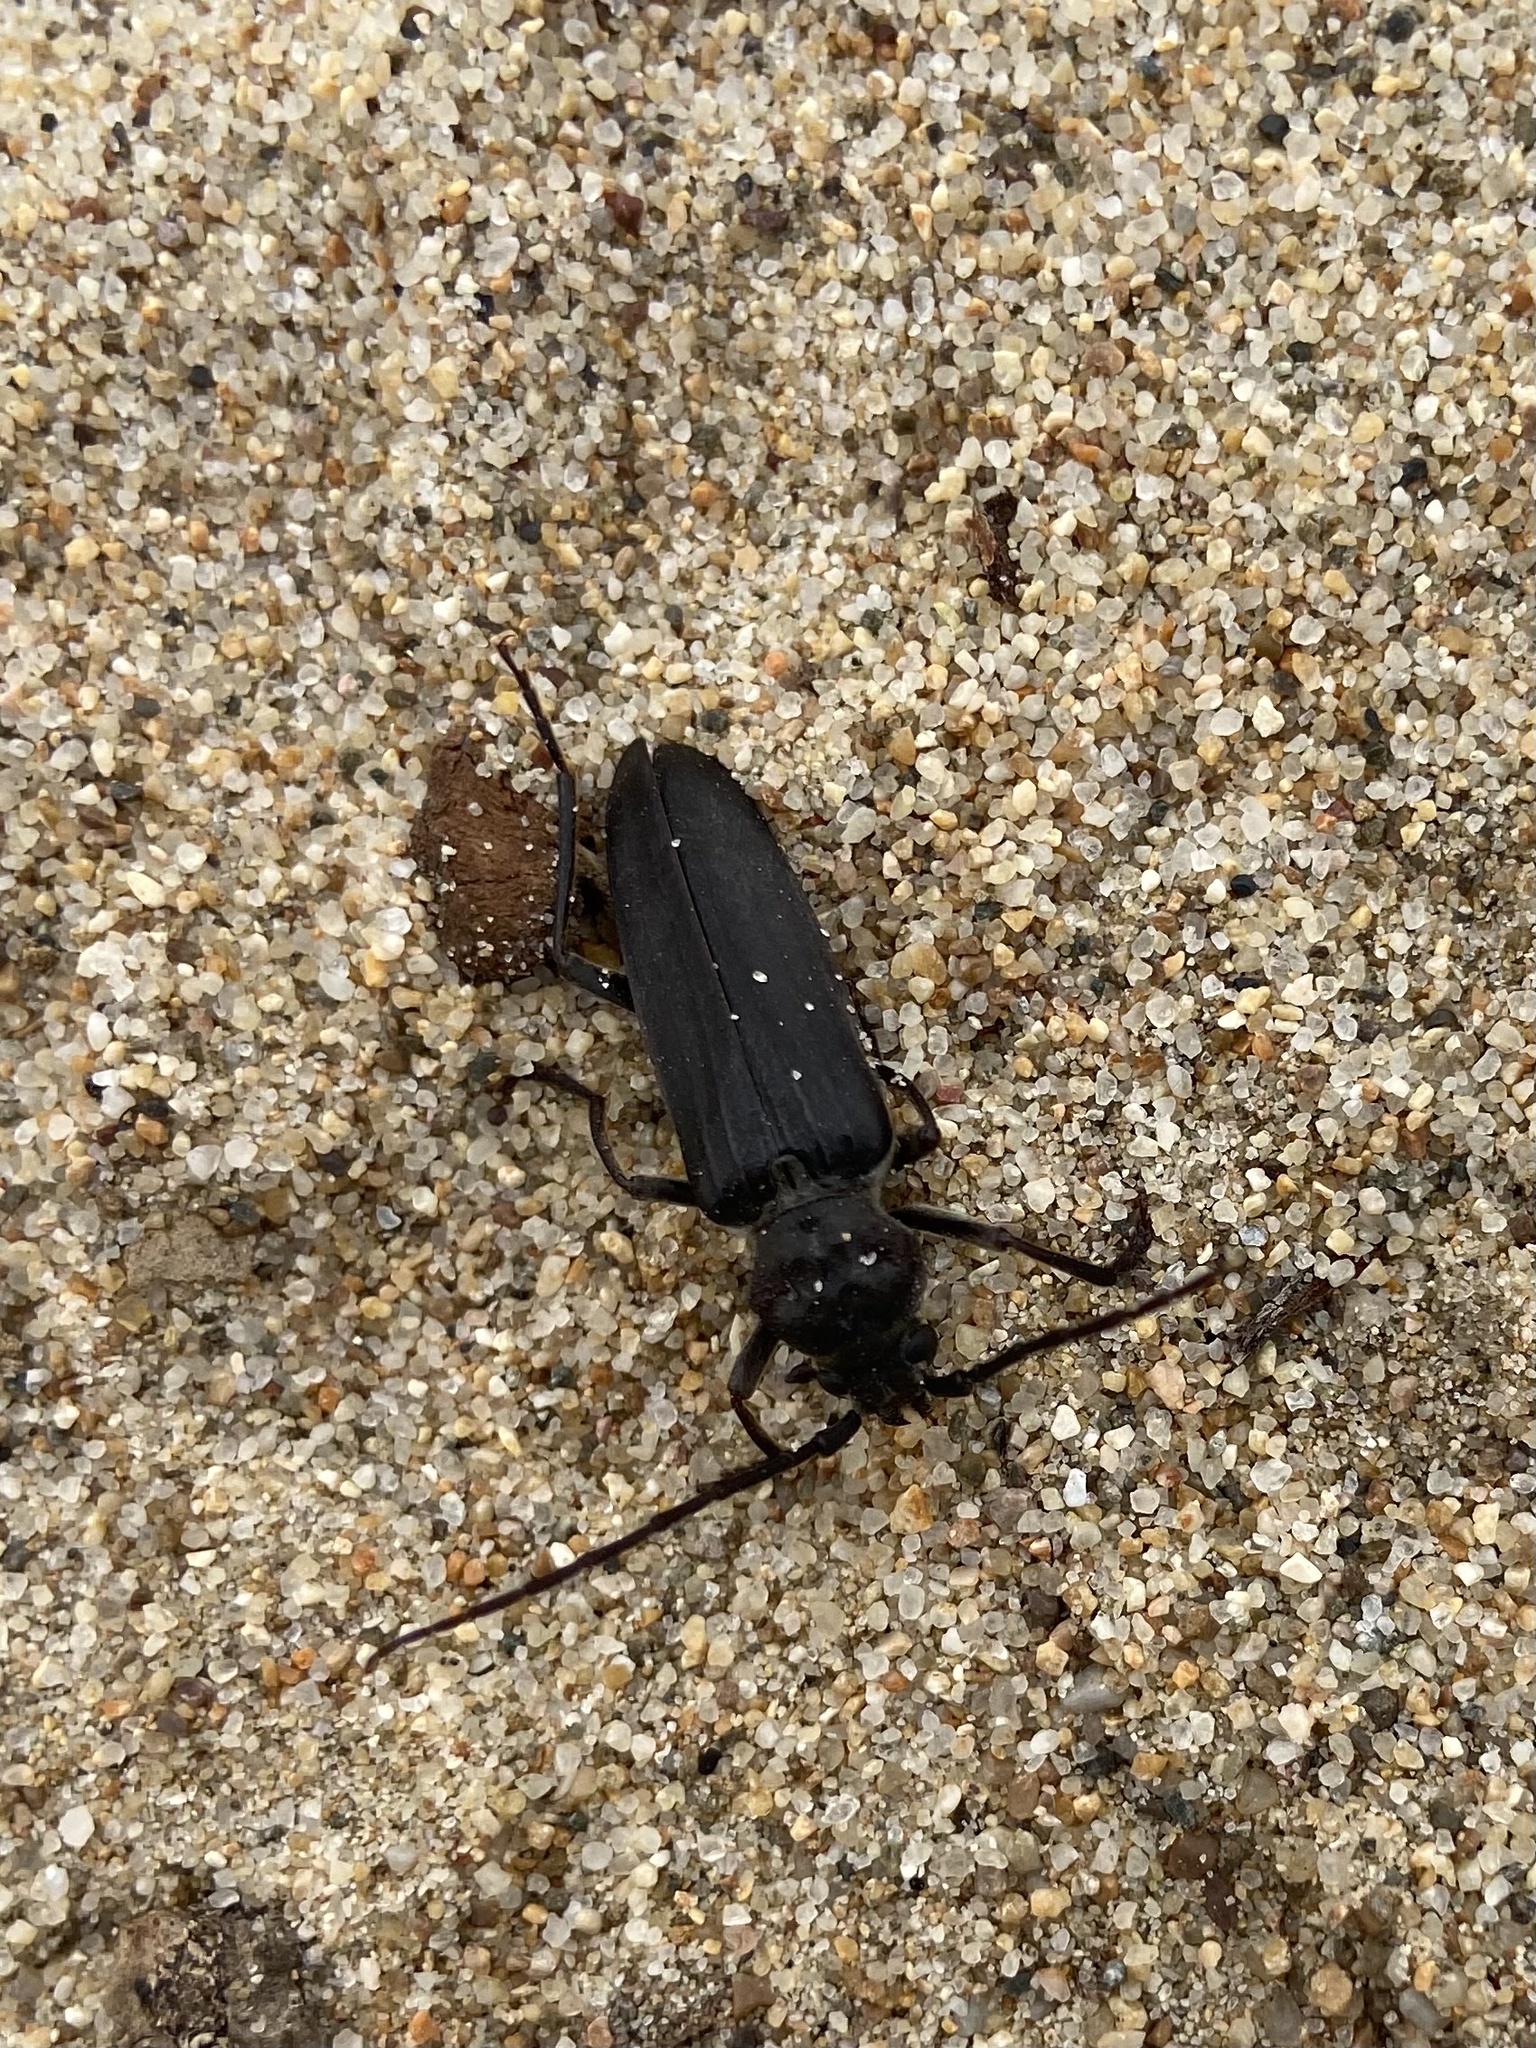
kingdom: Animalia
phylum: Arthropoda
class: Insecta
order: Coleoptera
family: Cerambycidae
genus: Arhopalus
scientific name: Arhopalus asperatus
